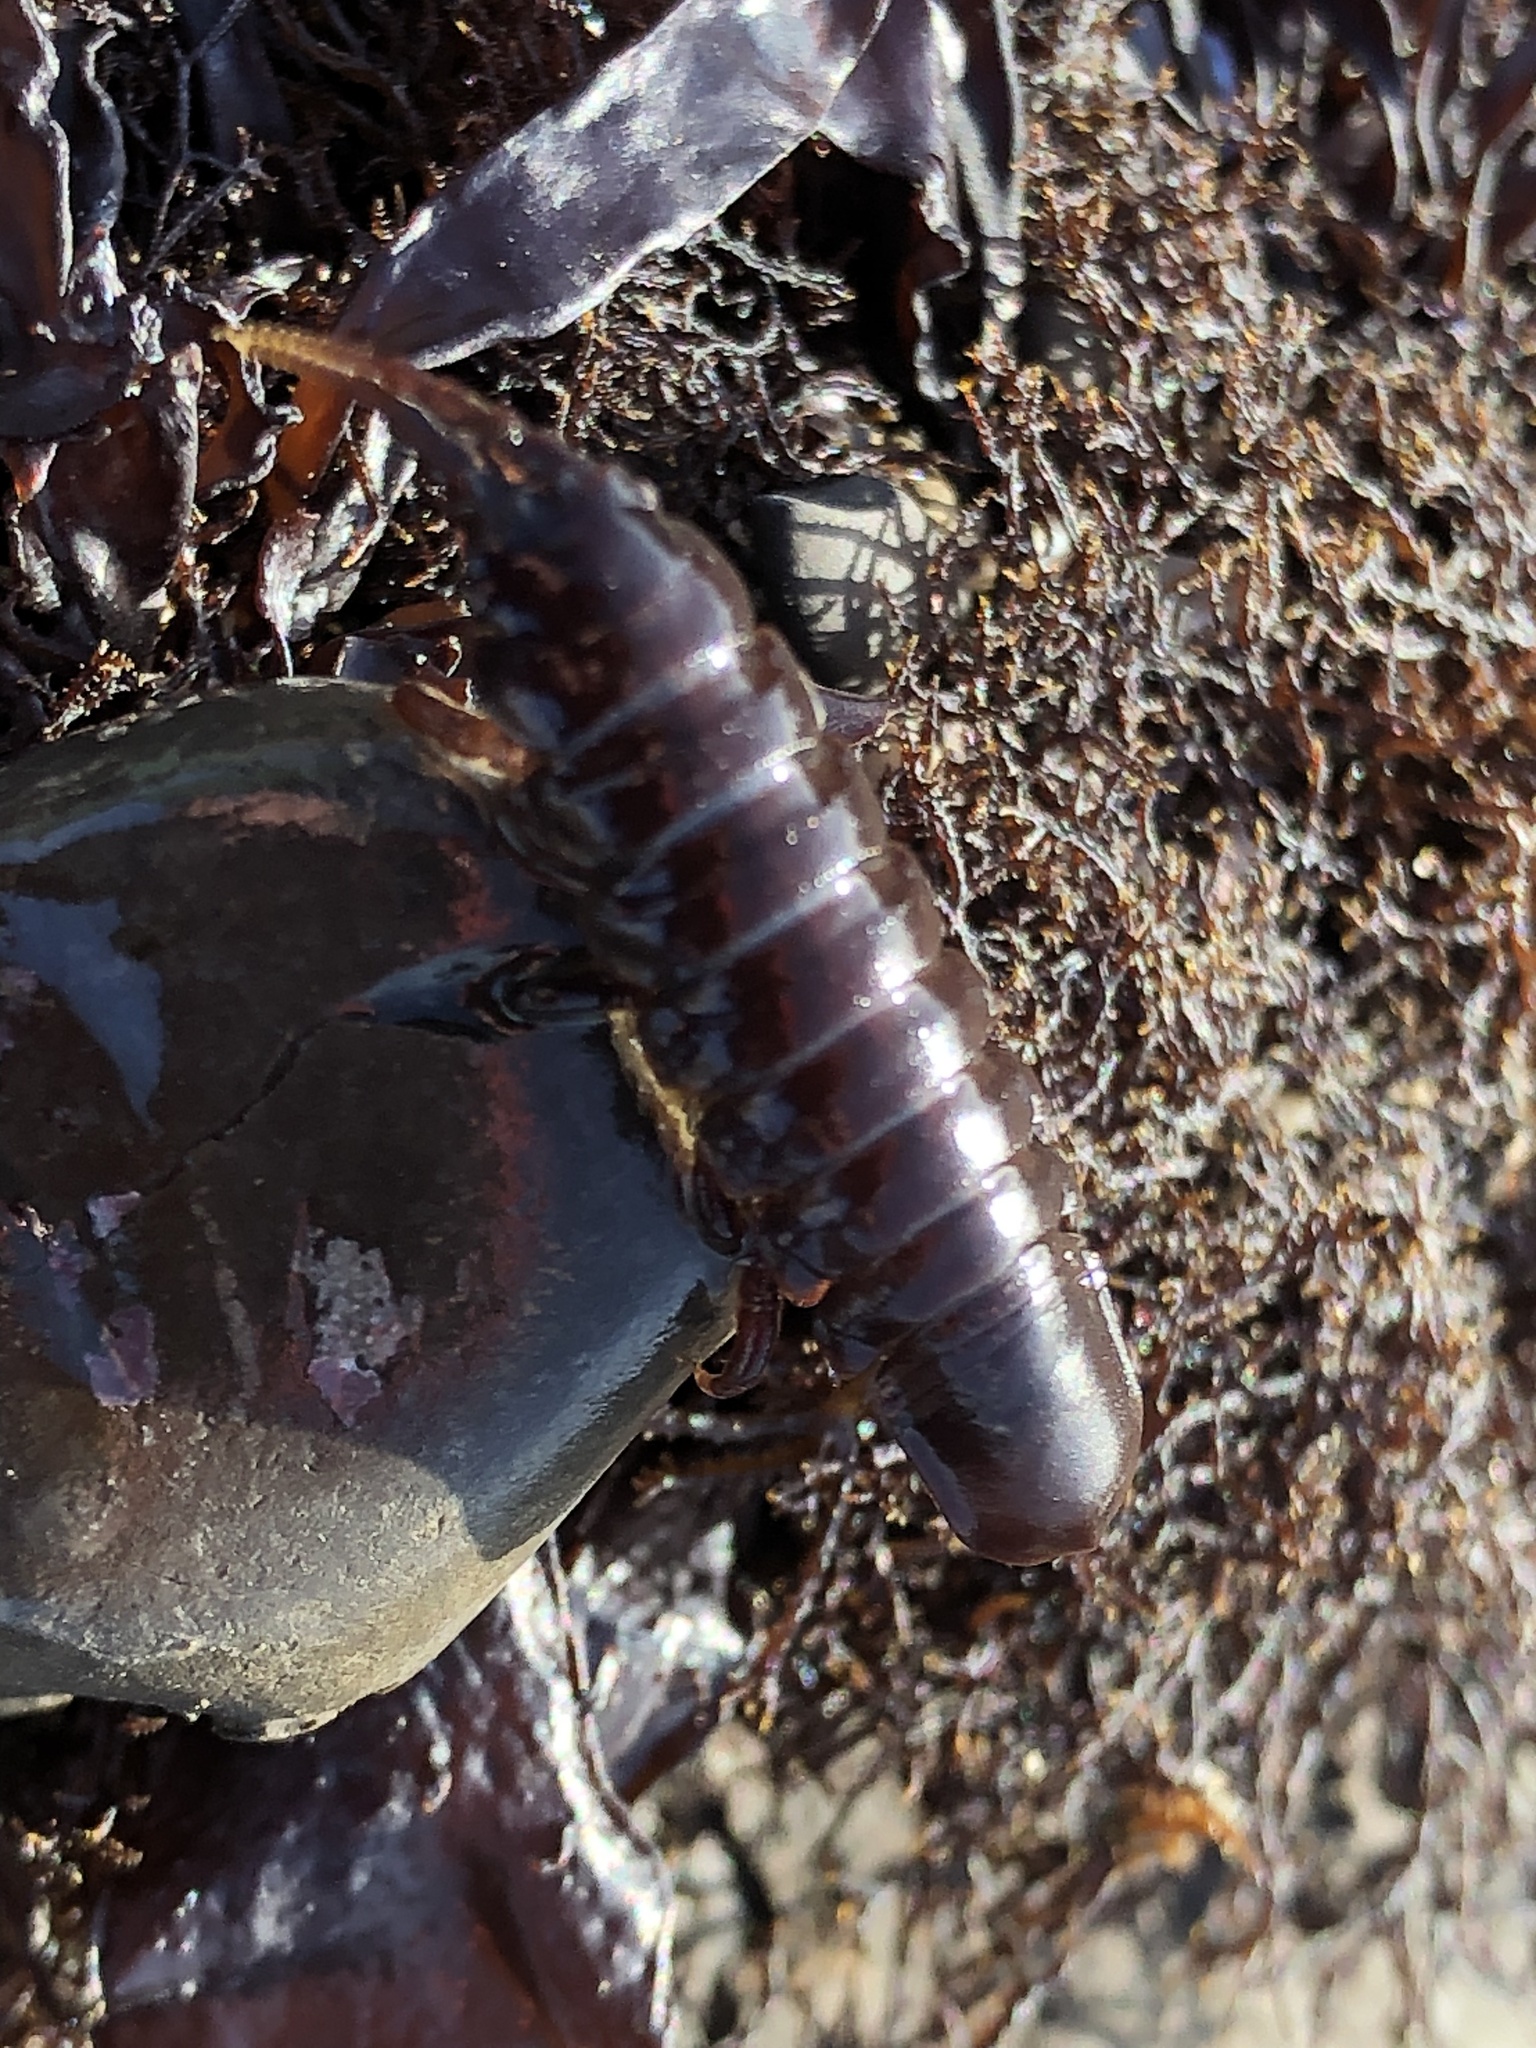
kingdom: Animalia
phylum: Arthropoda
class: Malacostraca
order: Isopoda
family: Idoteidae
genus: Pentidotea
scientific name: Pentidotea stenops
